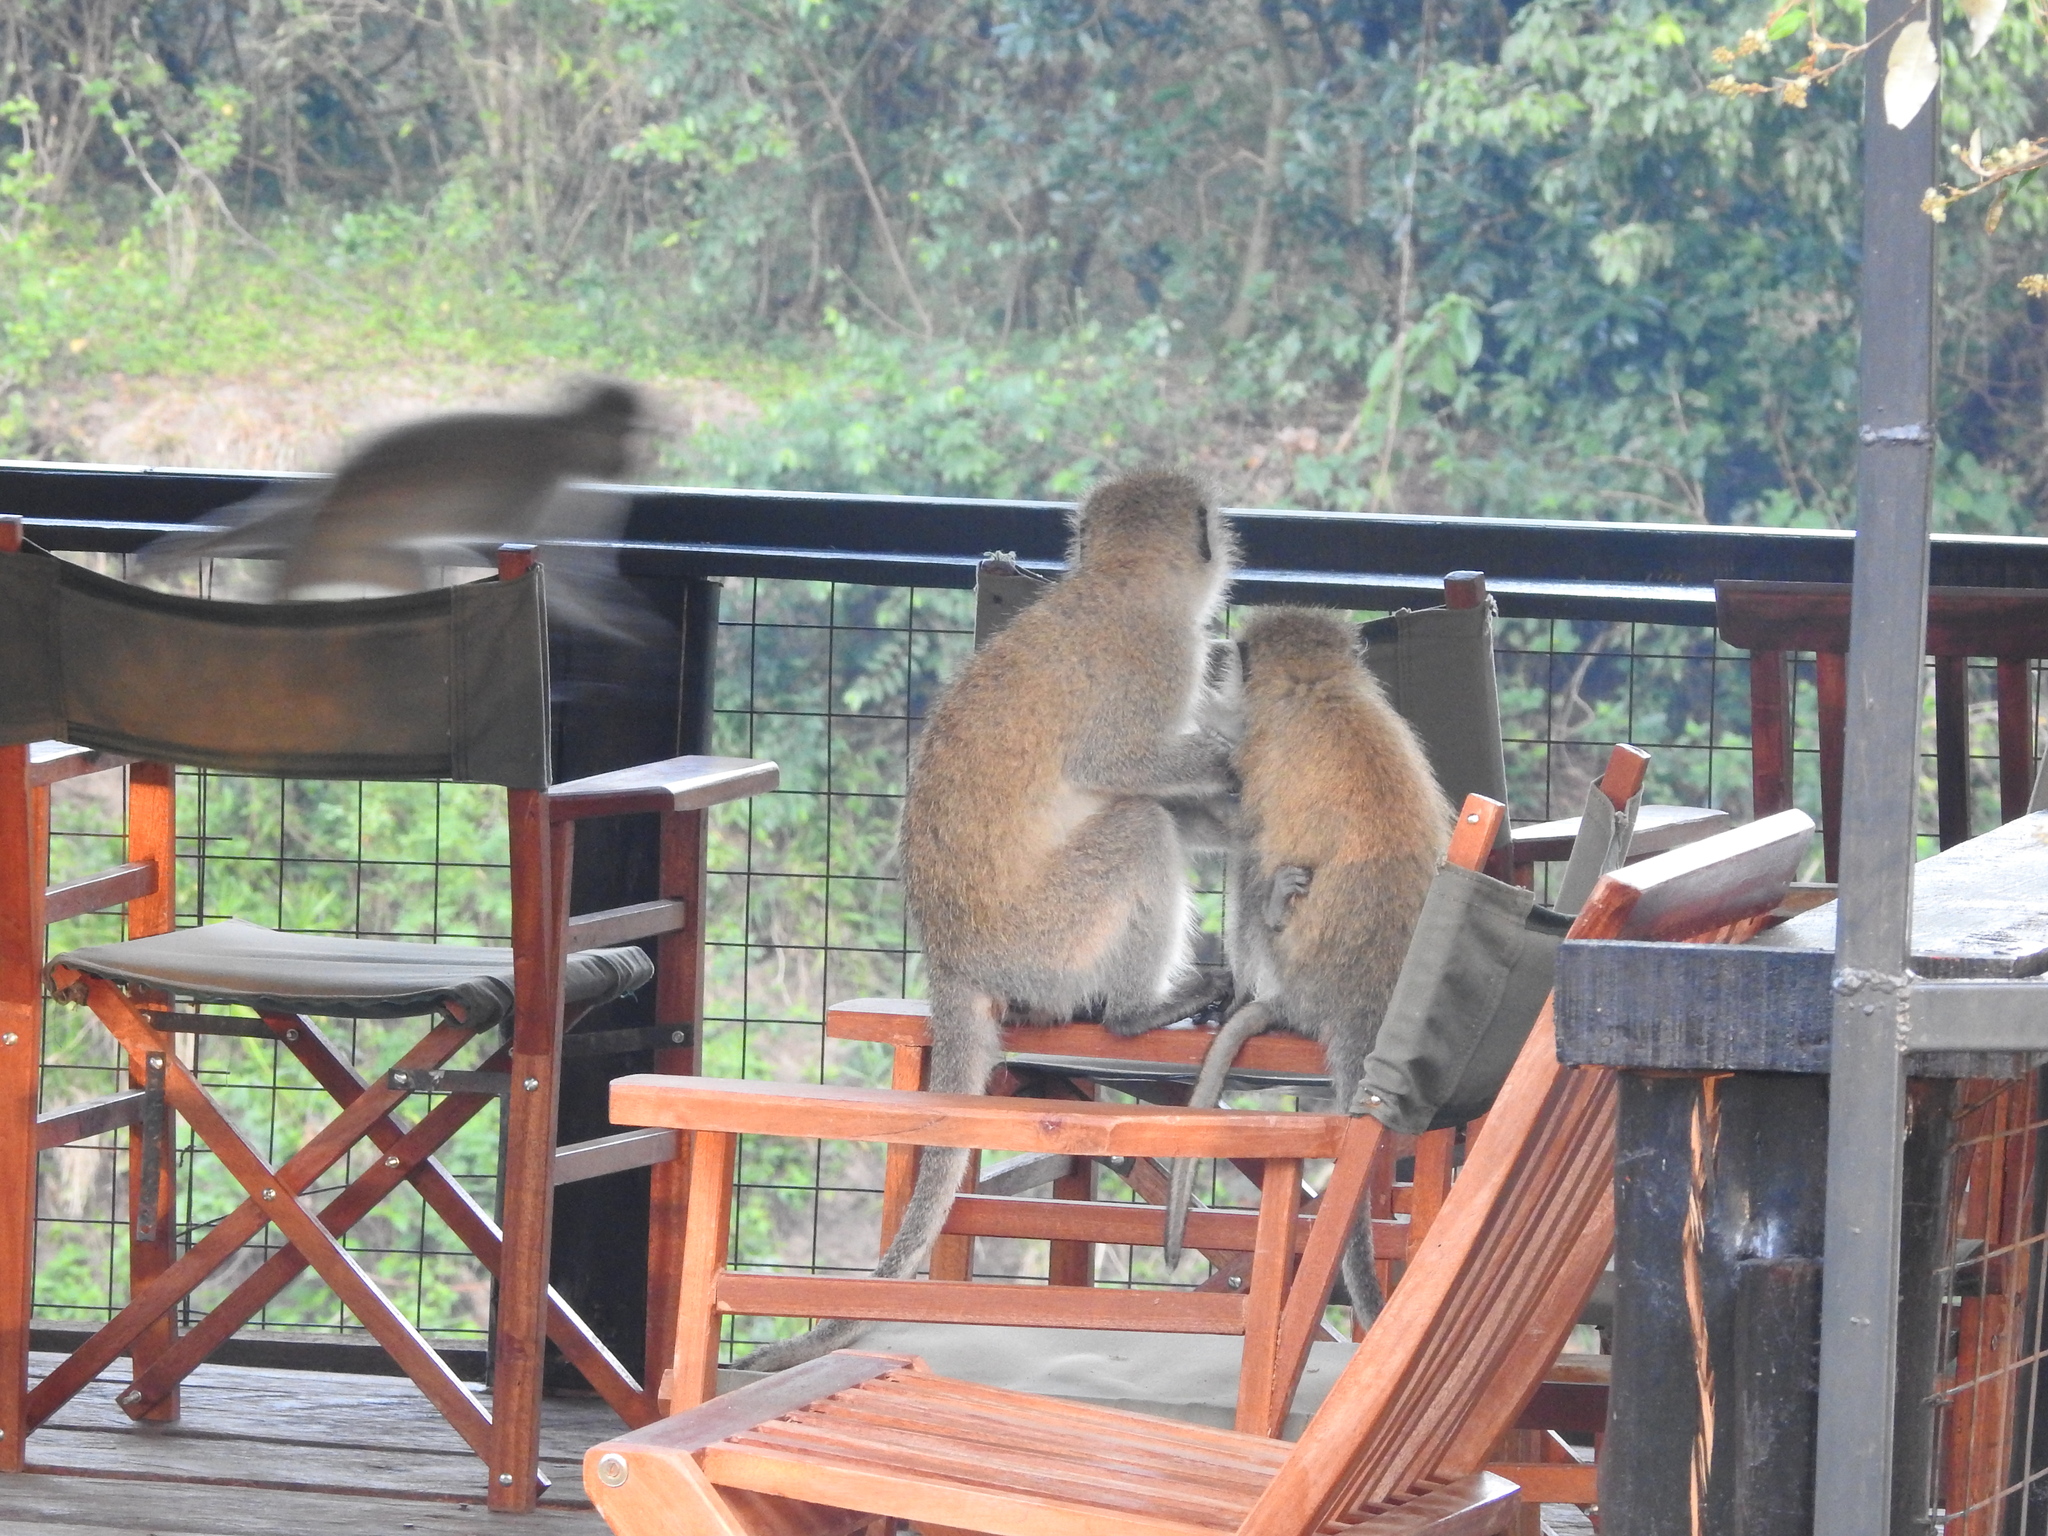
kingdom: Animalia
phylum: Chordata
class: Mammalia
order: Primates
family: Cercopithecidae
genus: Chlorocebus
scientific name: Chlorocebus pygerythrus
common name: Vervet monkey
